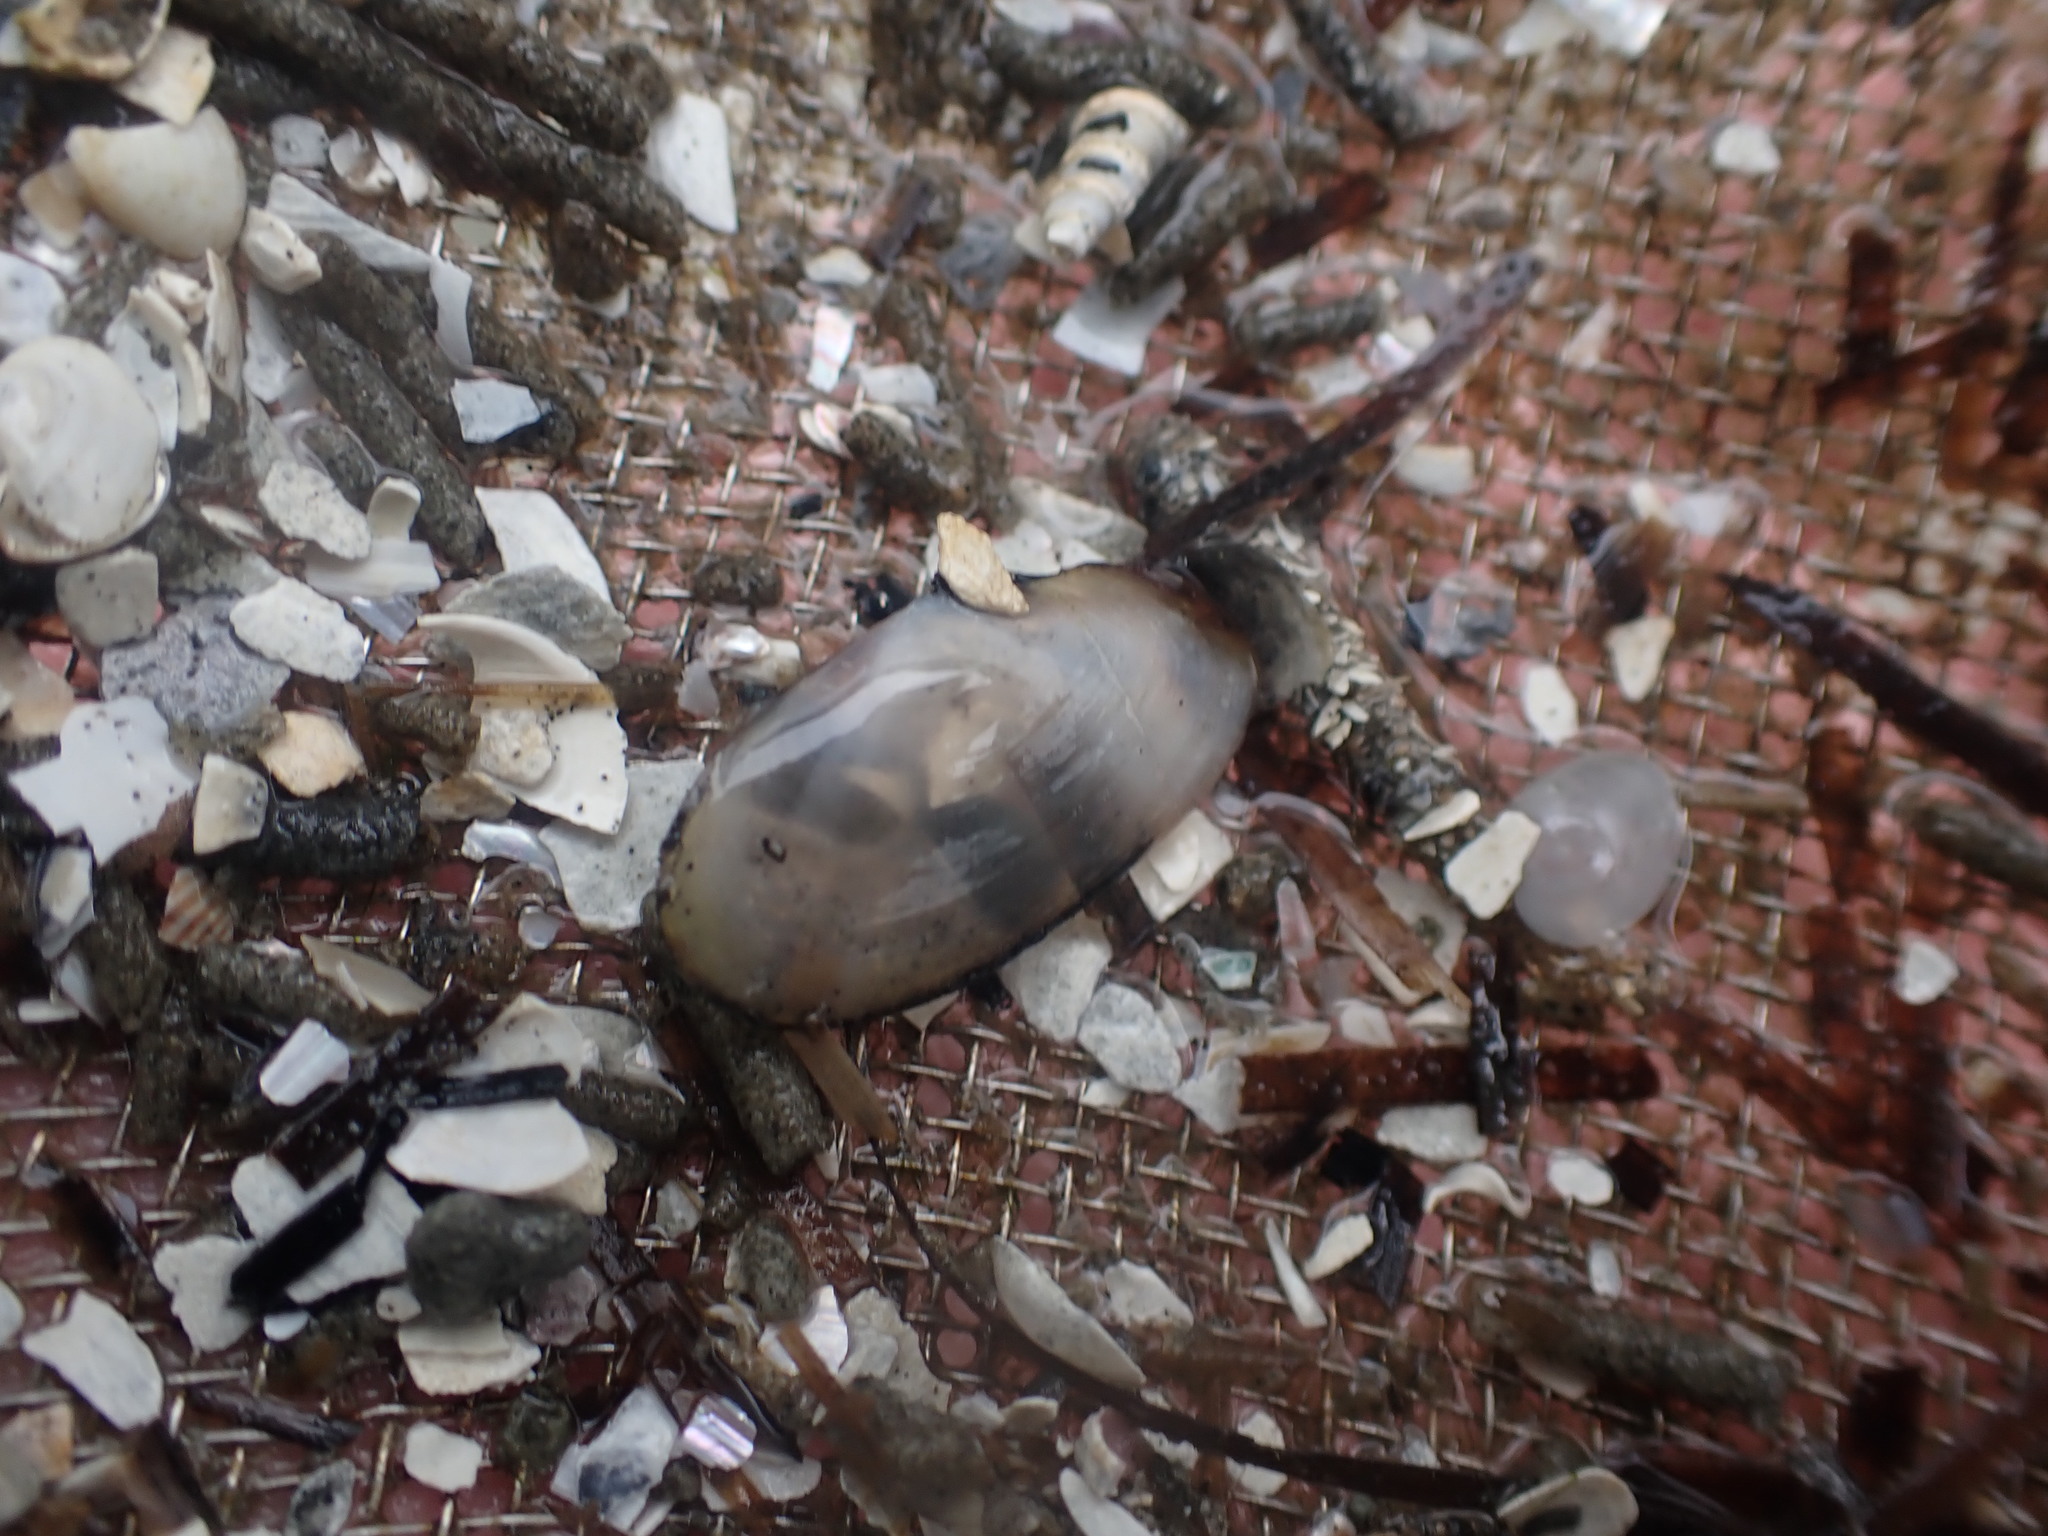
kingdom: Animalia
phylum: Mollusca
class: Bivalvia
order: Cardiida
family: Psammobiidae
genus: Hiatula
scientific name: Hiatula siliquens
